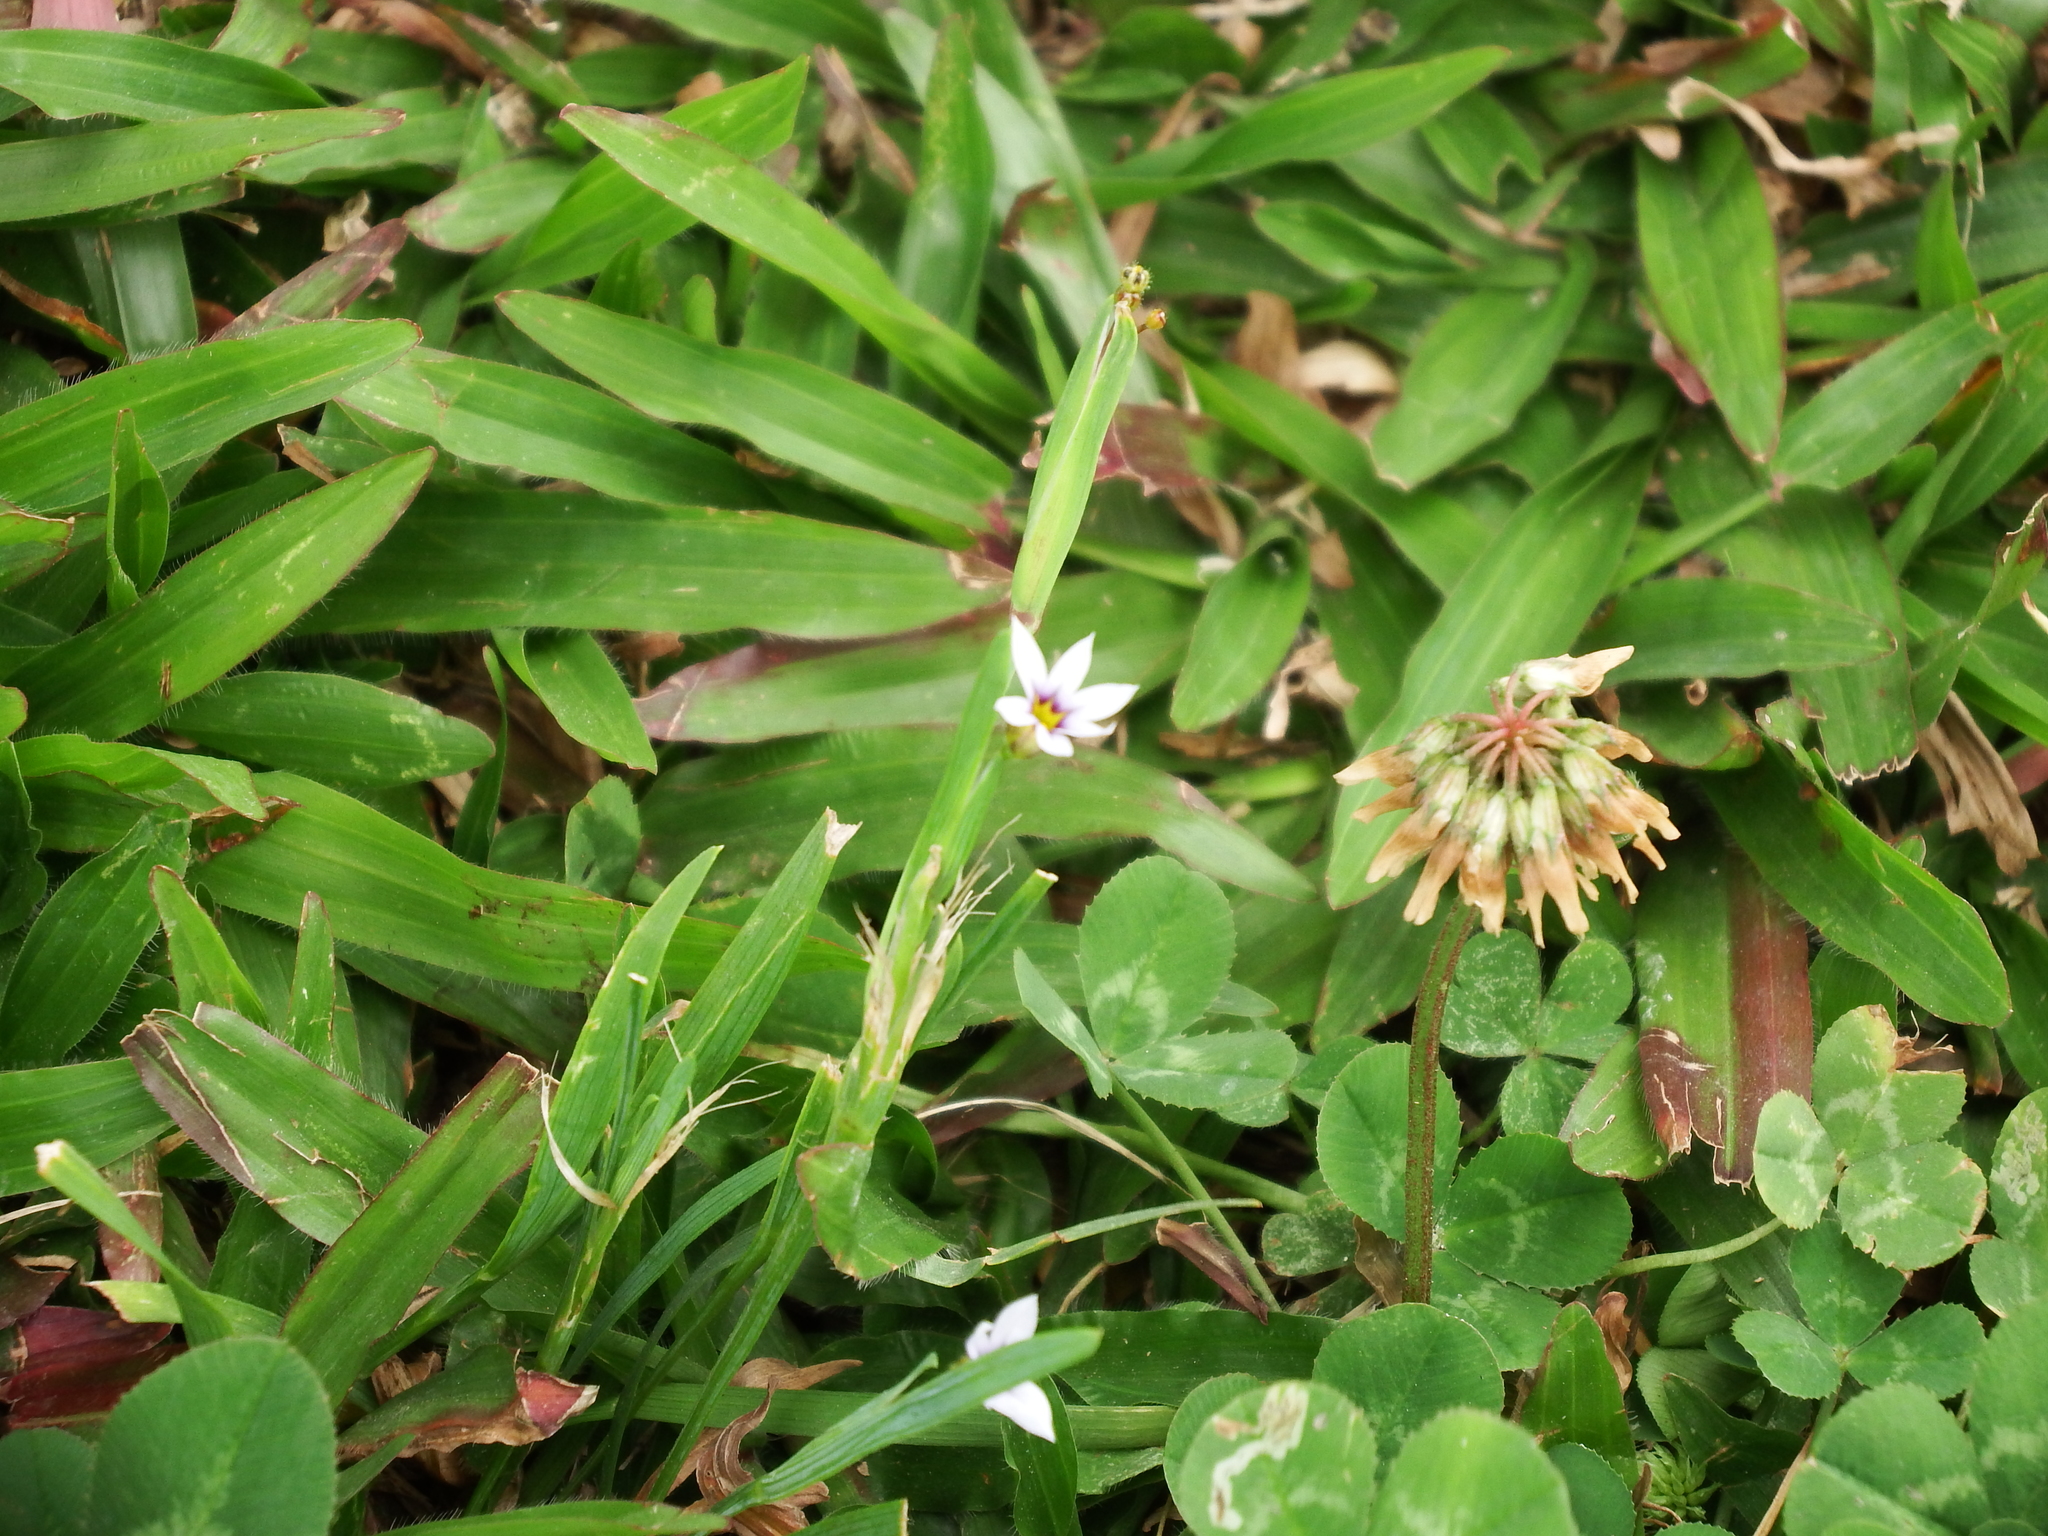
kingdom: Plantae
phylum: Tracheophyta
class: Liliopsida
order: Asparagales
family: Iridaceae
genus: Sisyrinchium
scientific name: Sisyrinchium micranthum
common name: Bermuda pigroot
